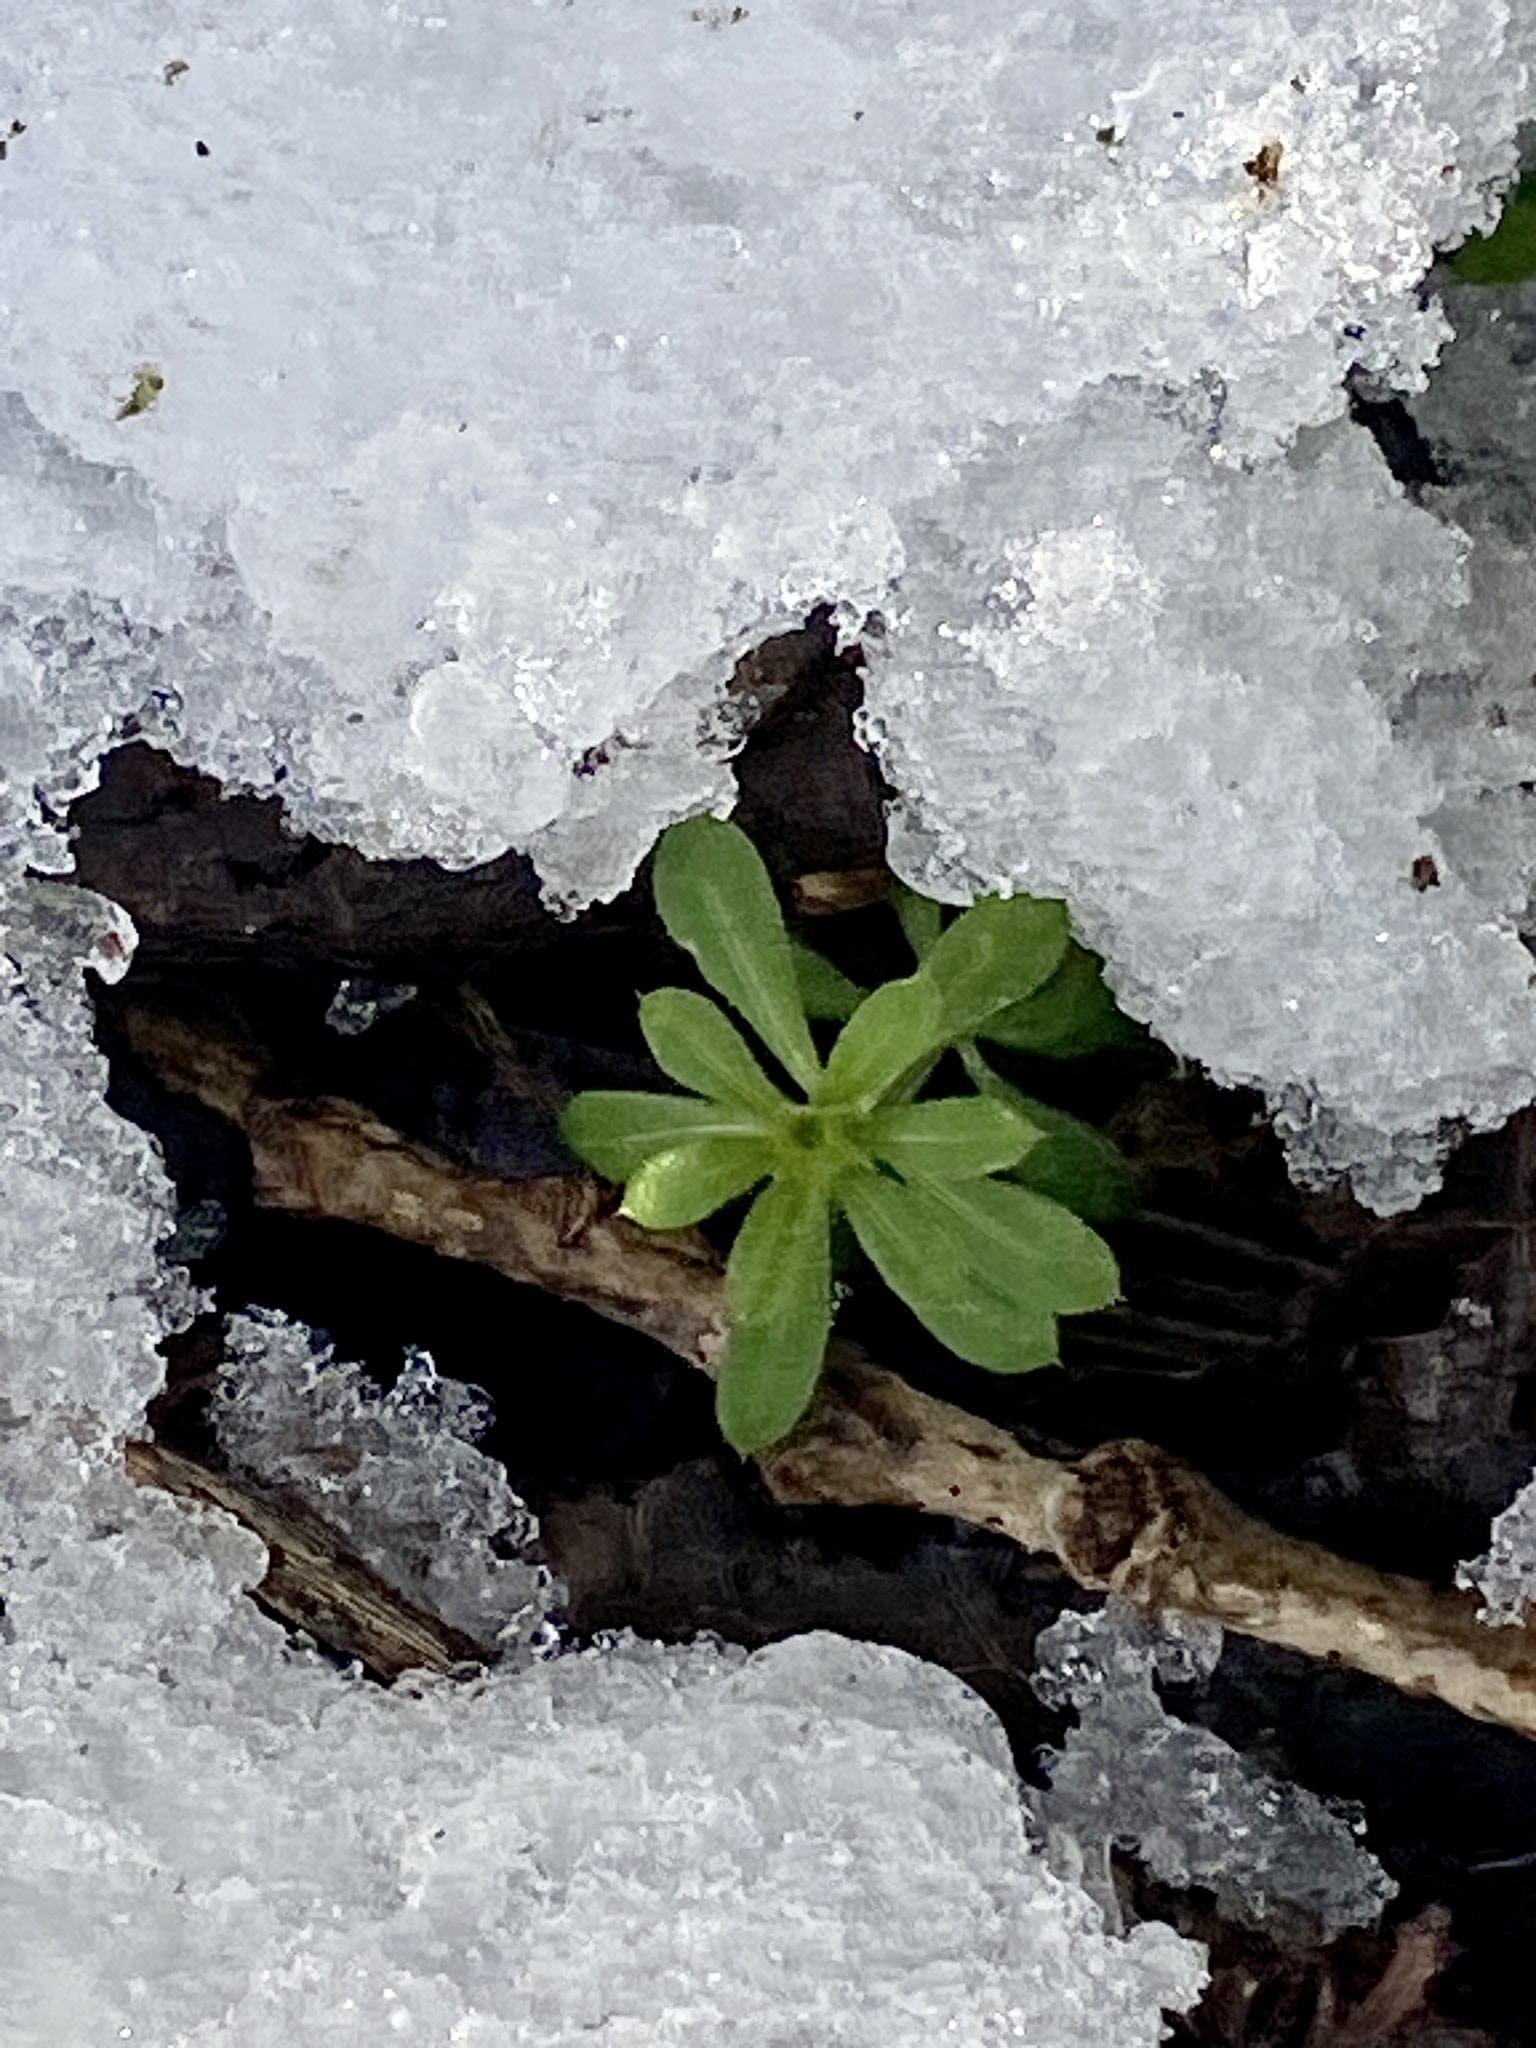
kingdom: Plantae
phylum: Tracheophyta
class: Magnoliopsida
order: Gentianales
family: Rubiaceae
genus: Galium
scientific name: Galium aparine
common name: Cleavers
